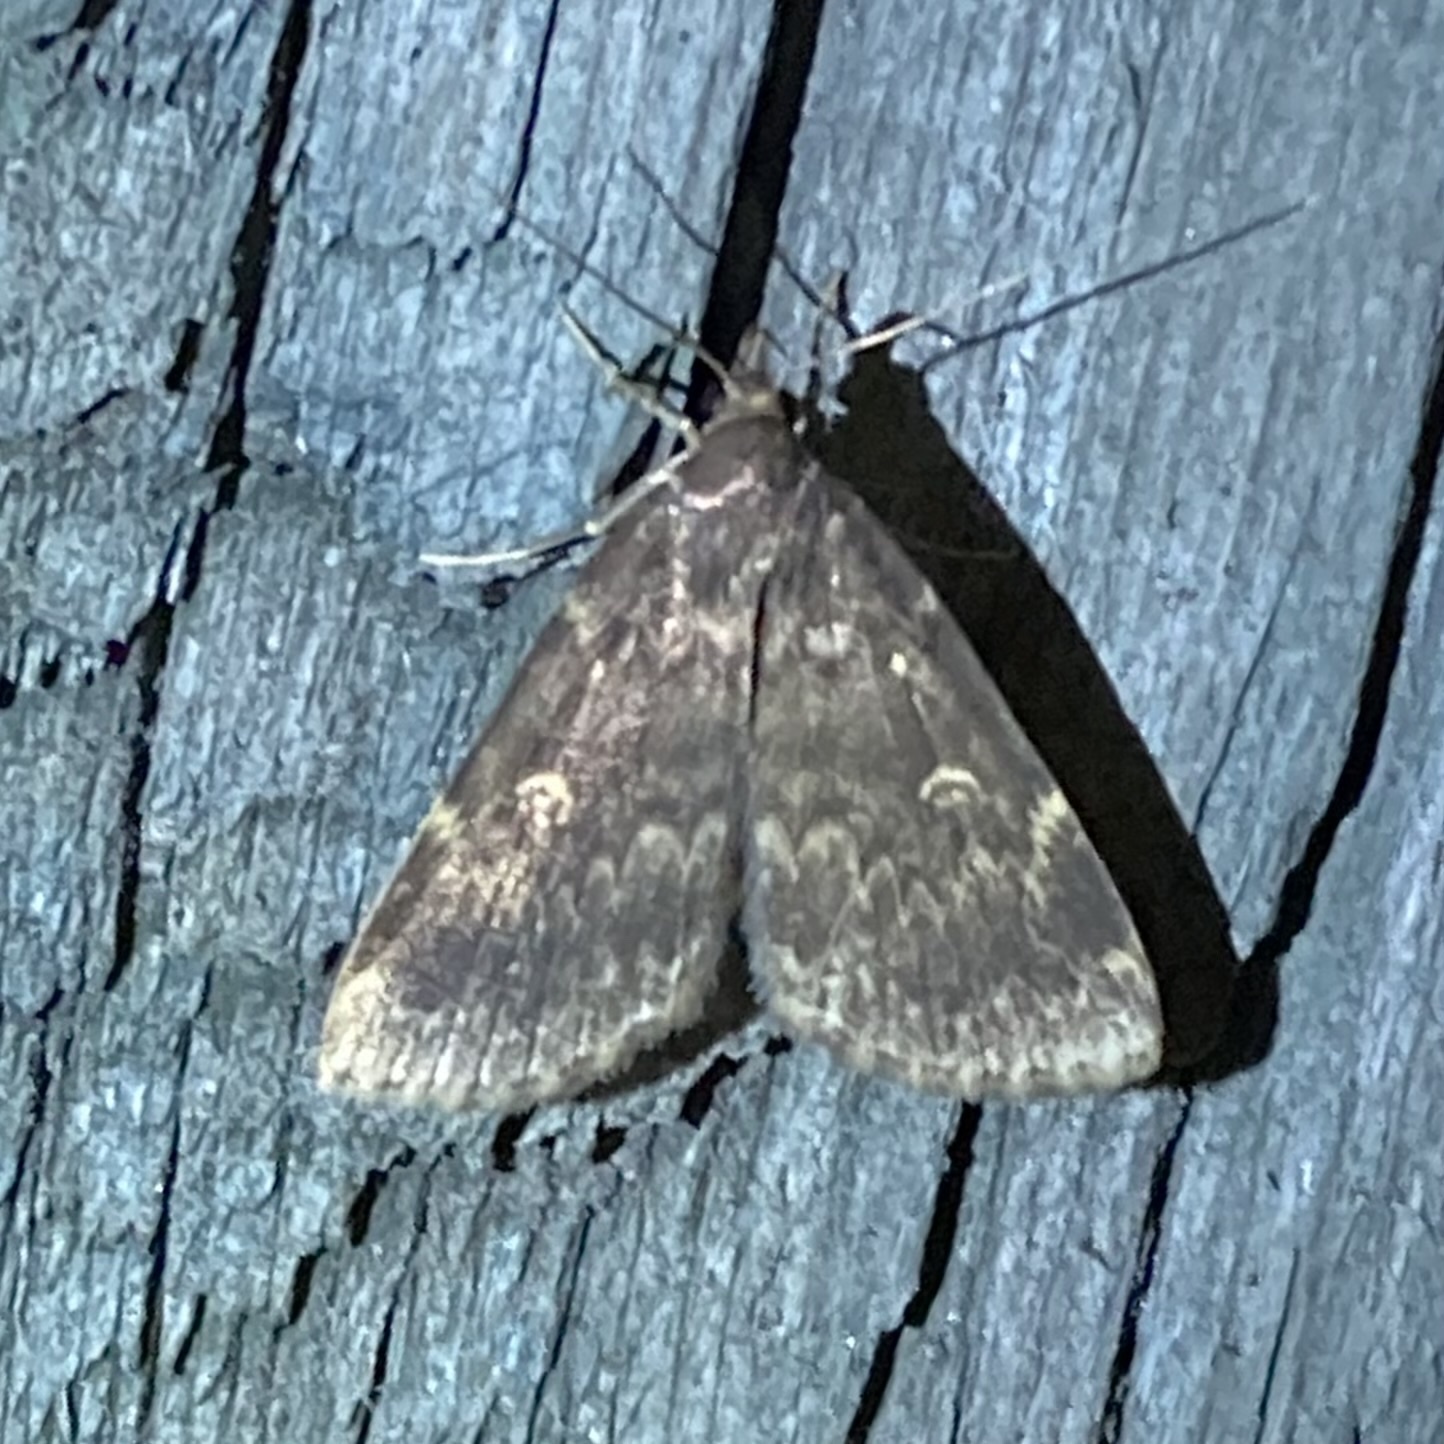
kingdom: Animalia
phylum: Arthropoda
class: Insecta
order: Lepidoptera
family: Erebidae
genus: Idia
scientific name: Idia lubricalis
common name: Twin-striped tabby
